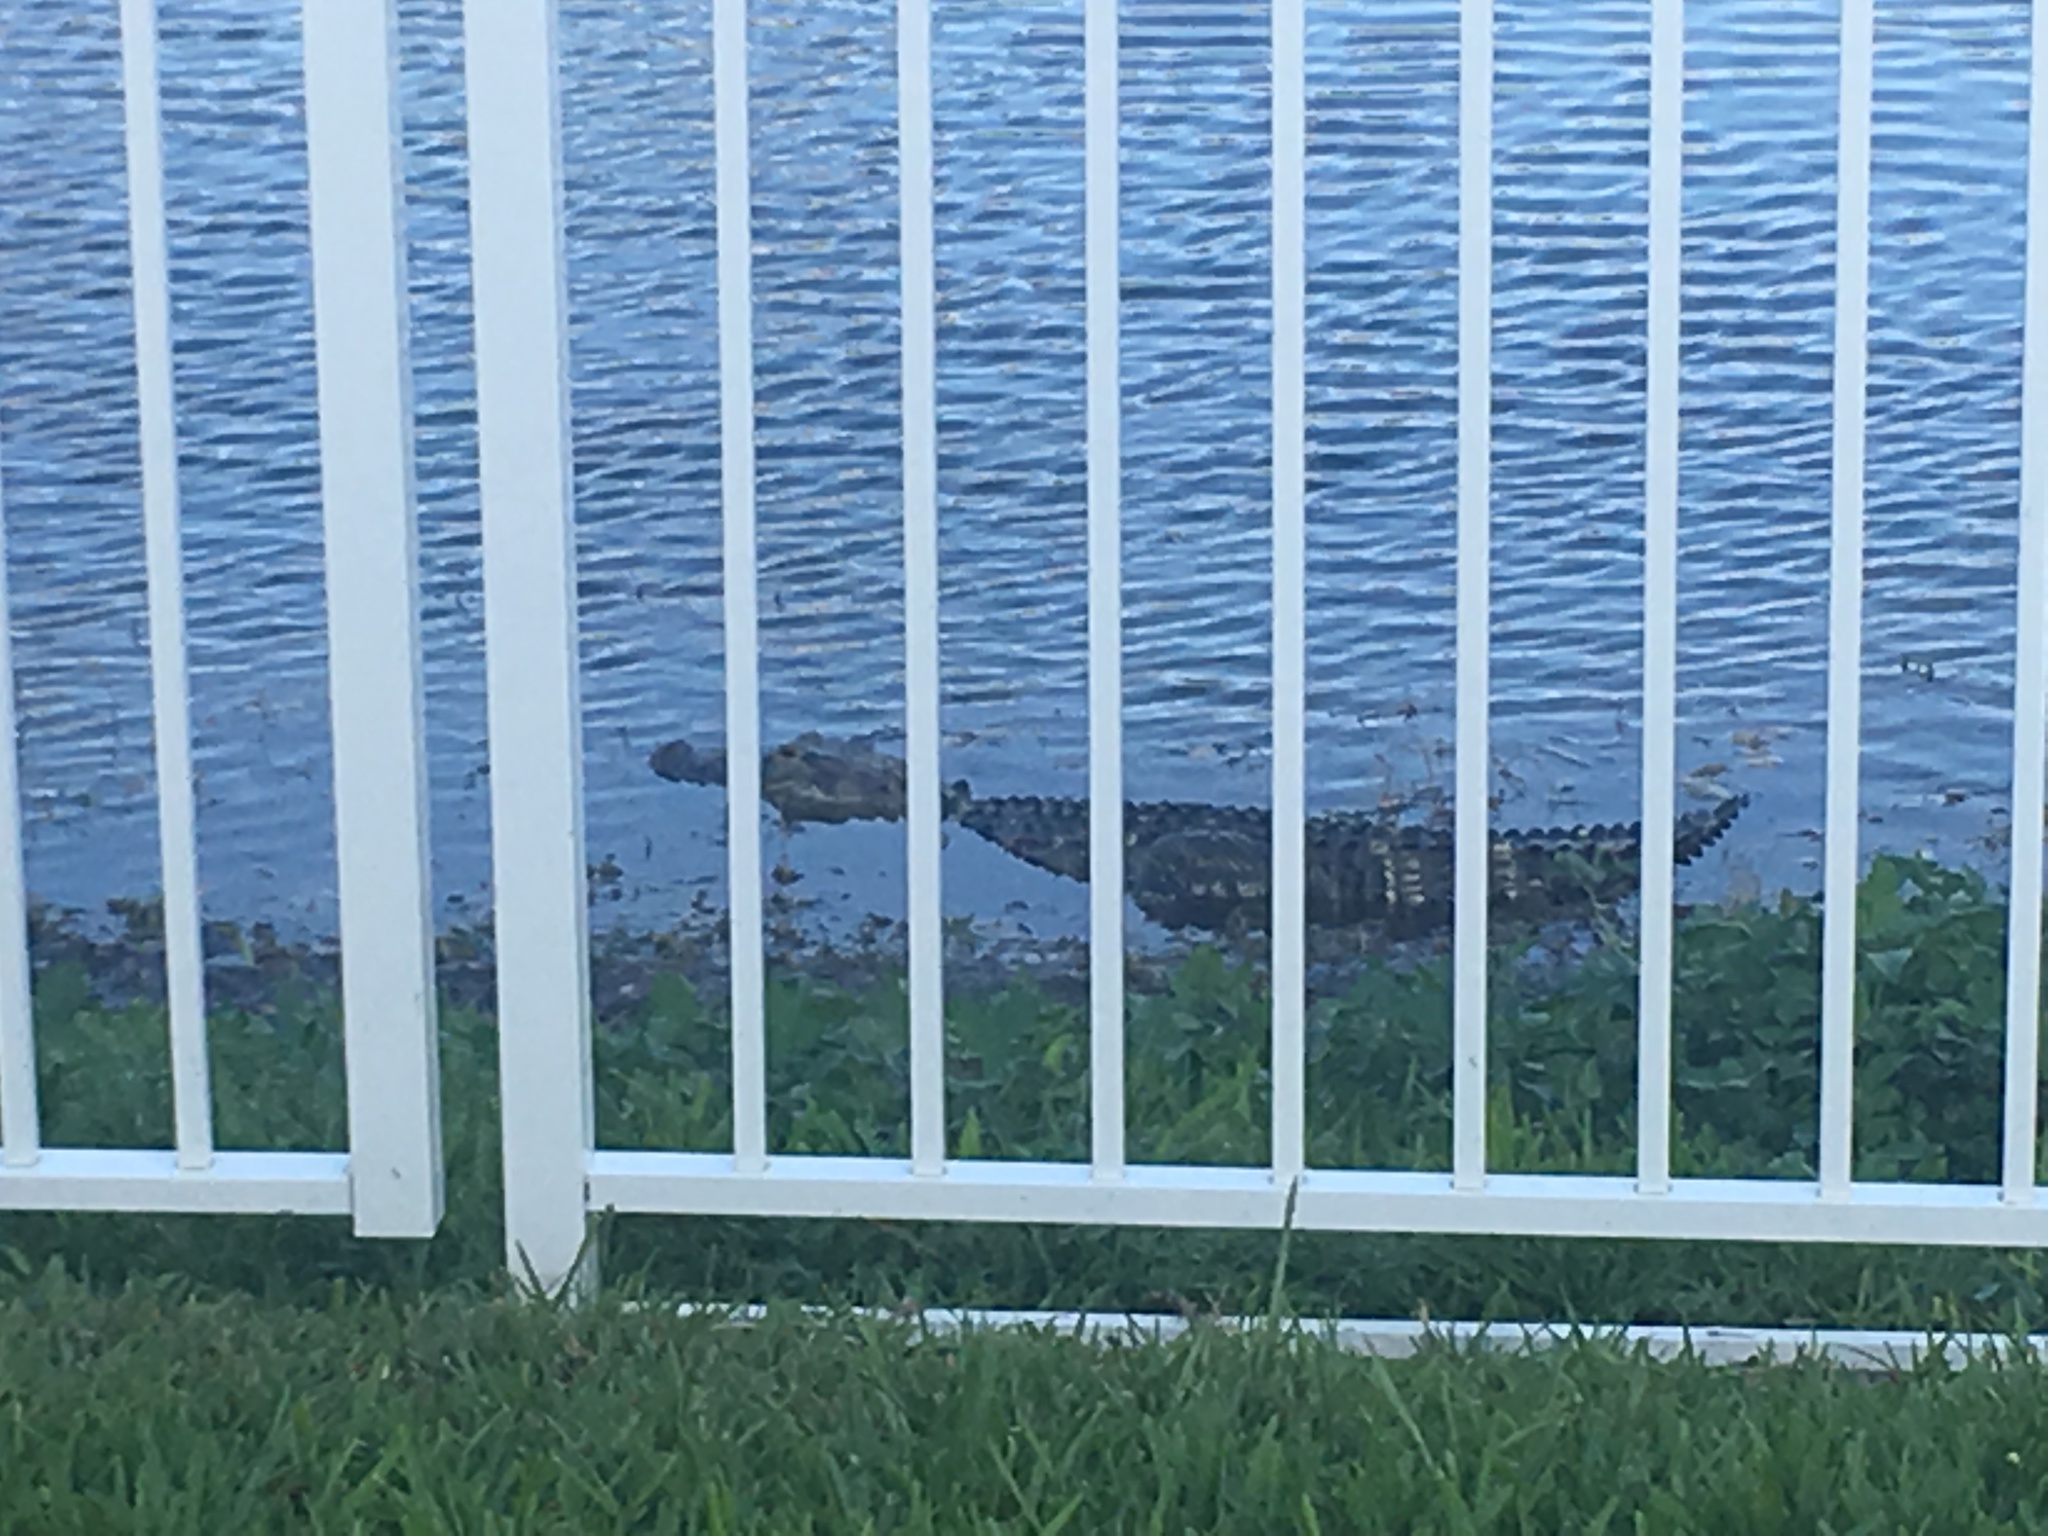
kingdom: Animalia
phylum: Chordata
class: Crocodylia
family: Alligatoridae
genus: Alligator
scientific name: Alligator mississippiensis
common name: American alligator
